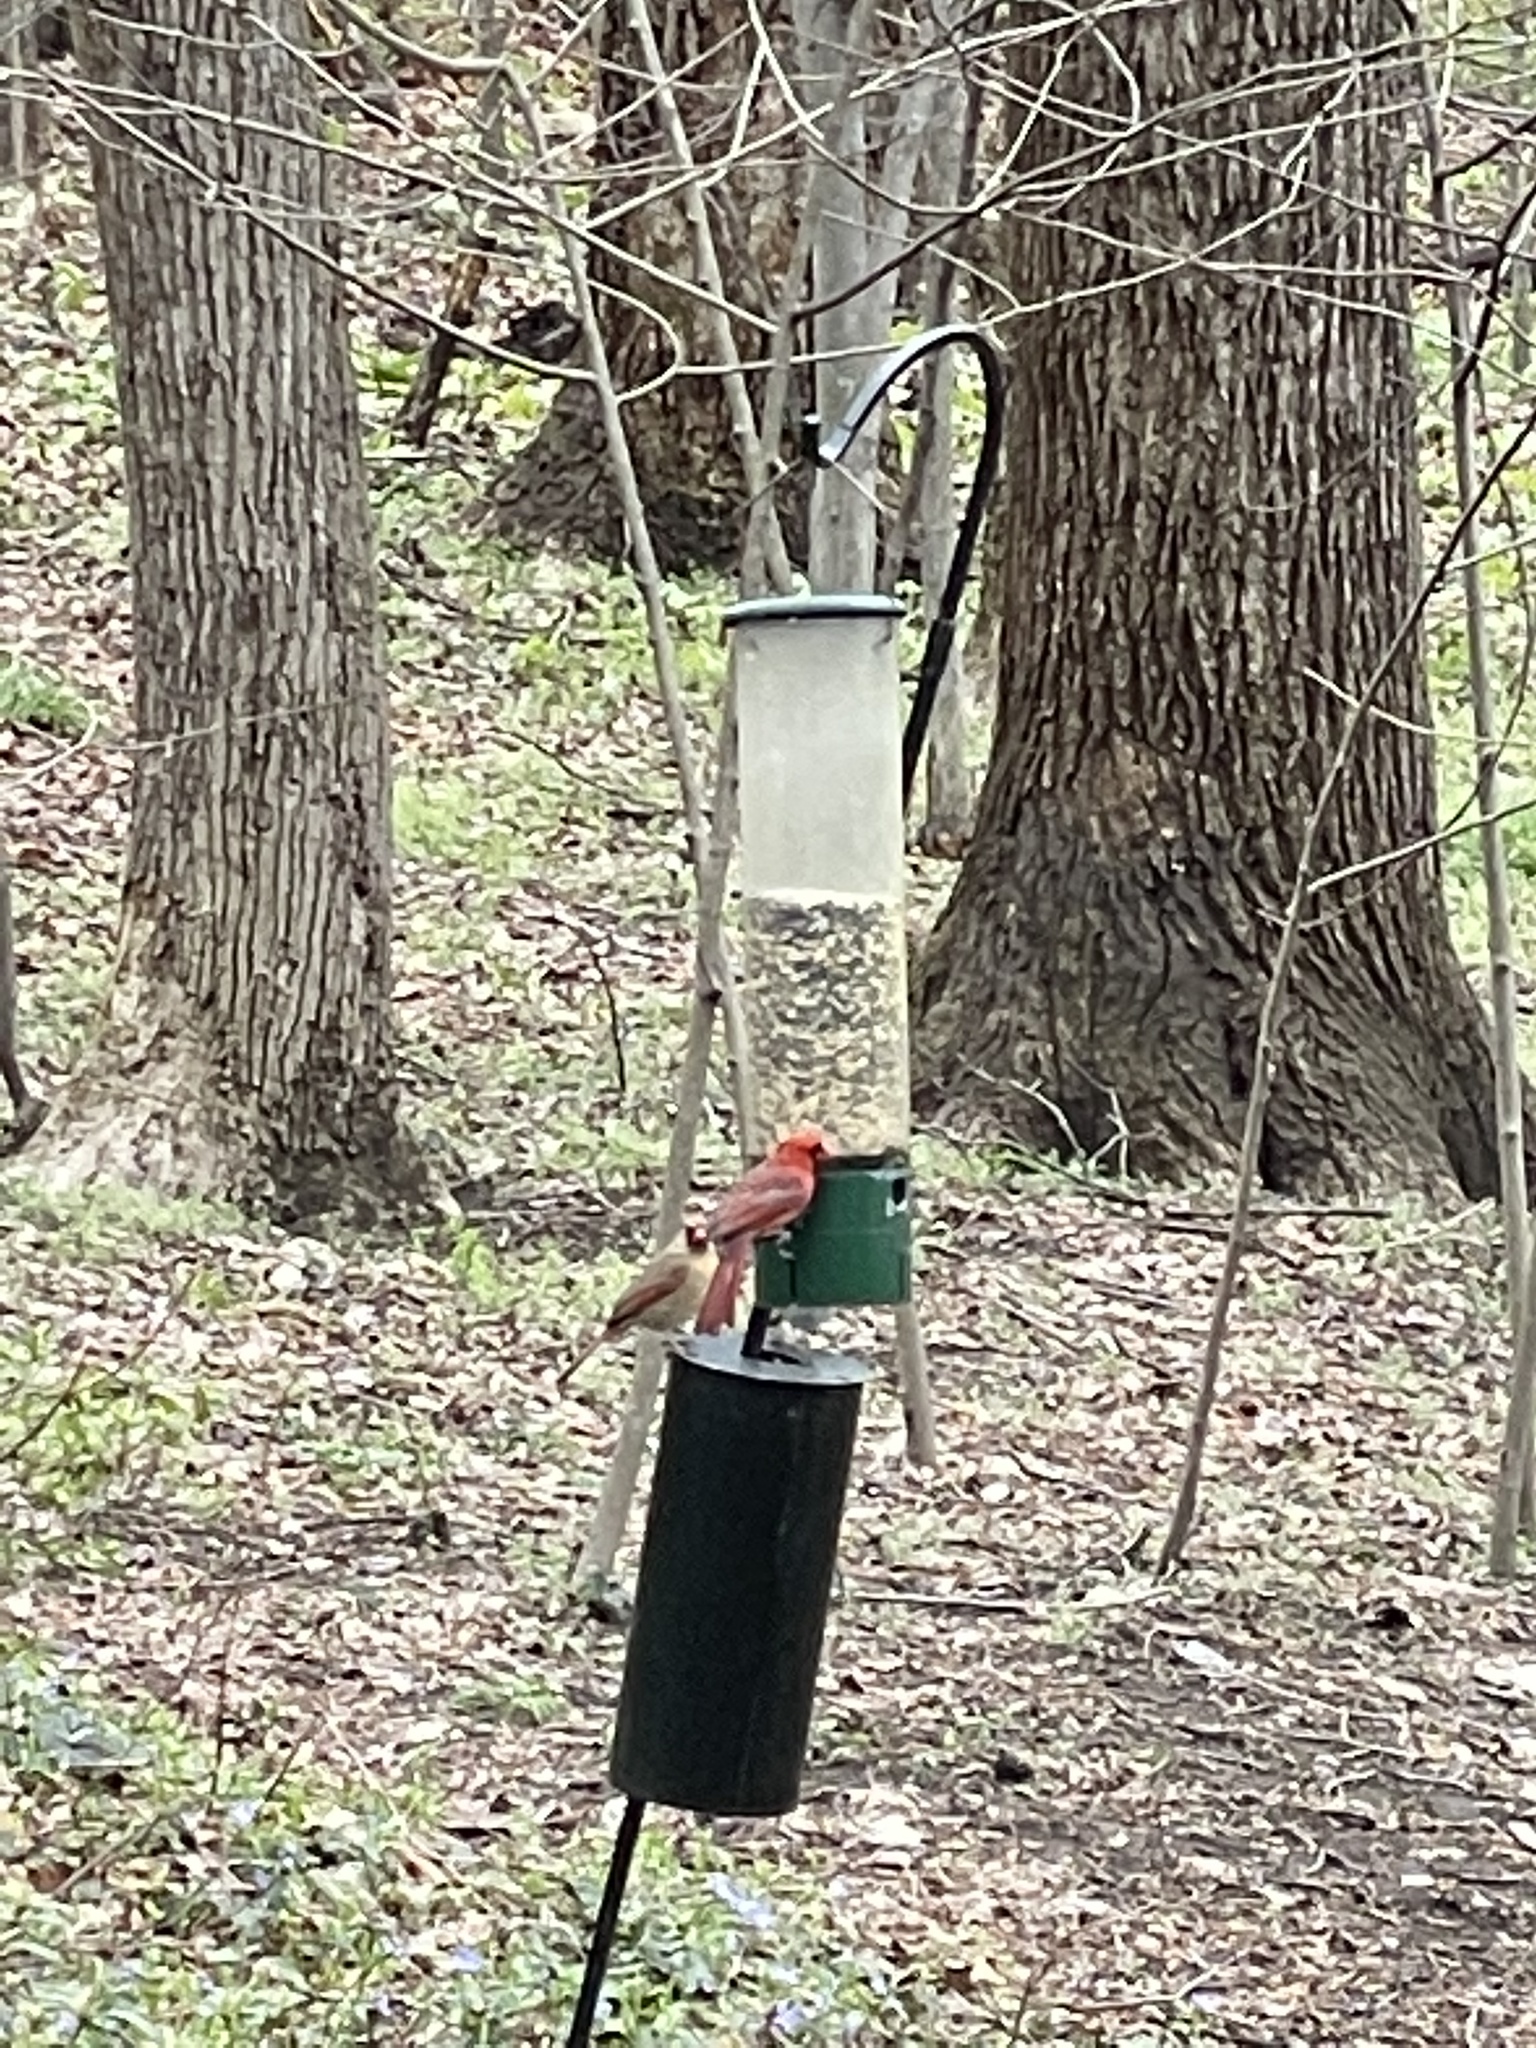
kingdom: Animalia
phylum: Chordata
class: Aves
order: Passeriformes
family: Cardinalidae
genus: Cardinalis
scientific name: Cardinalis cardinalis
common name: Northern cardinal
